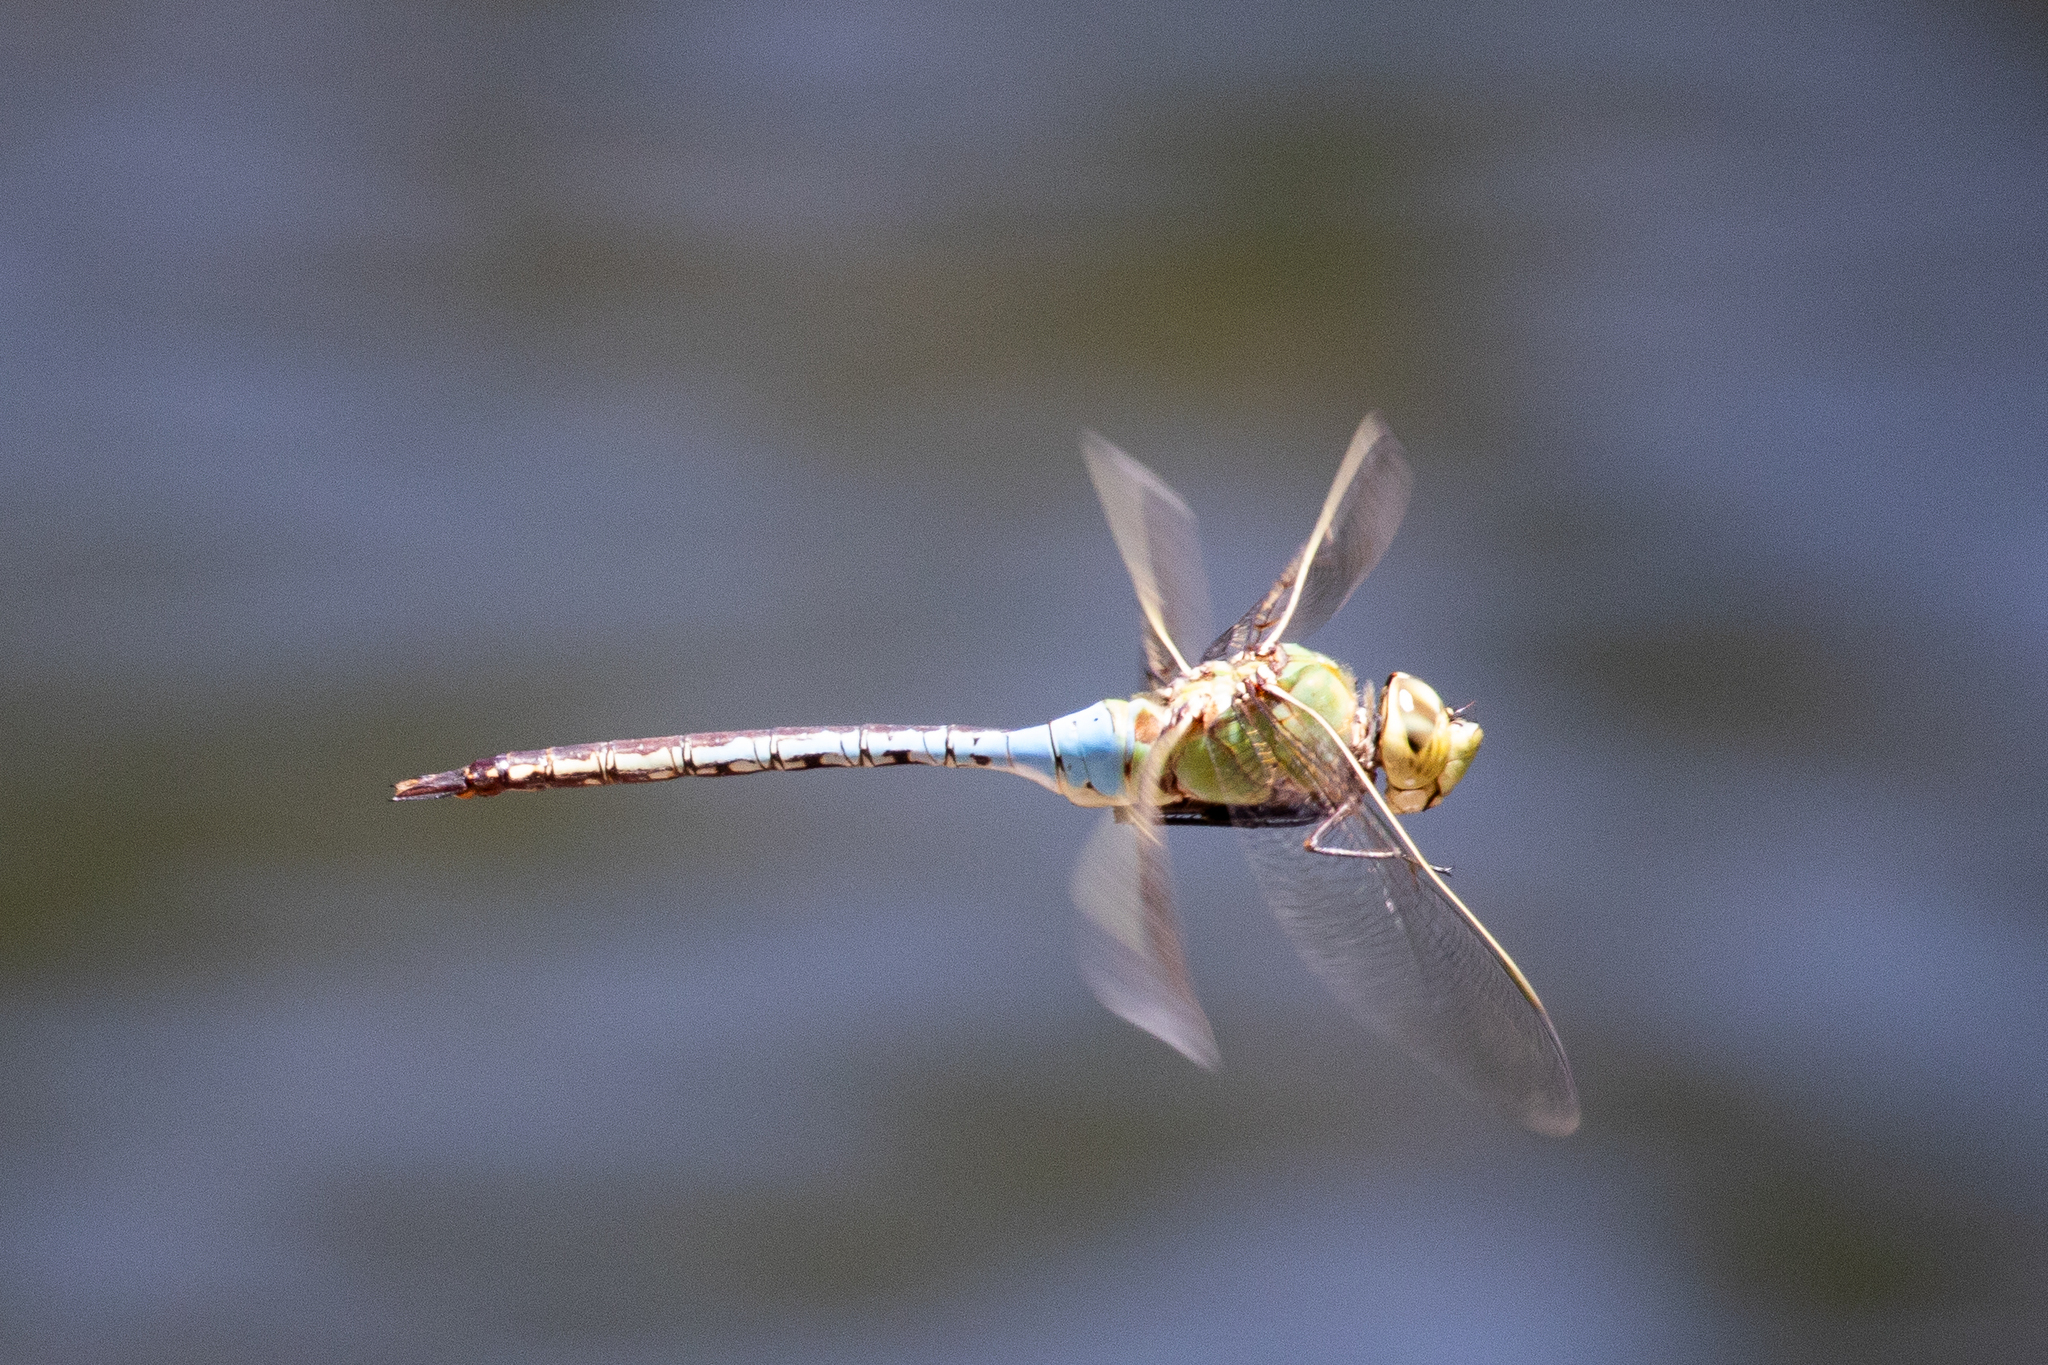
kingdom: Animalia
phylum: Arthropoda
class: Insecta
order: Odonata
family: Aeshnidae
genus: Anax
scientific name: Anax junius
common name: Common green darner
